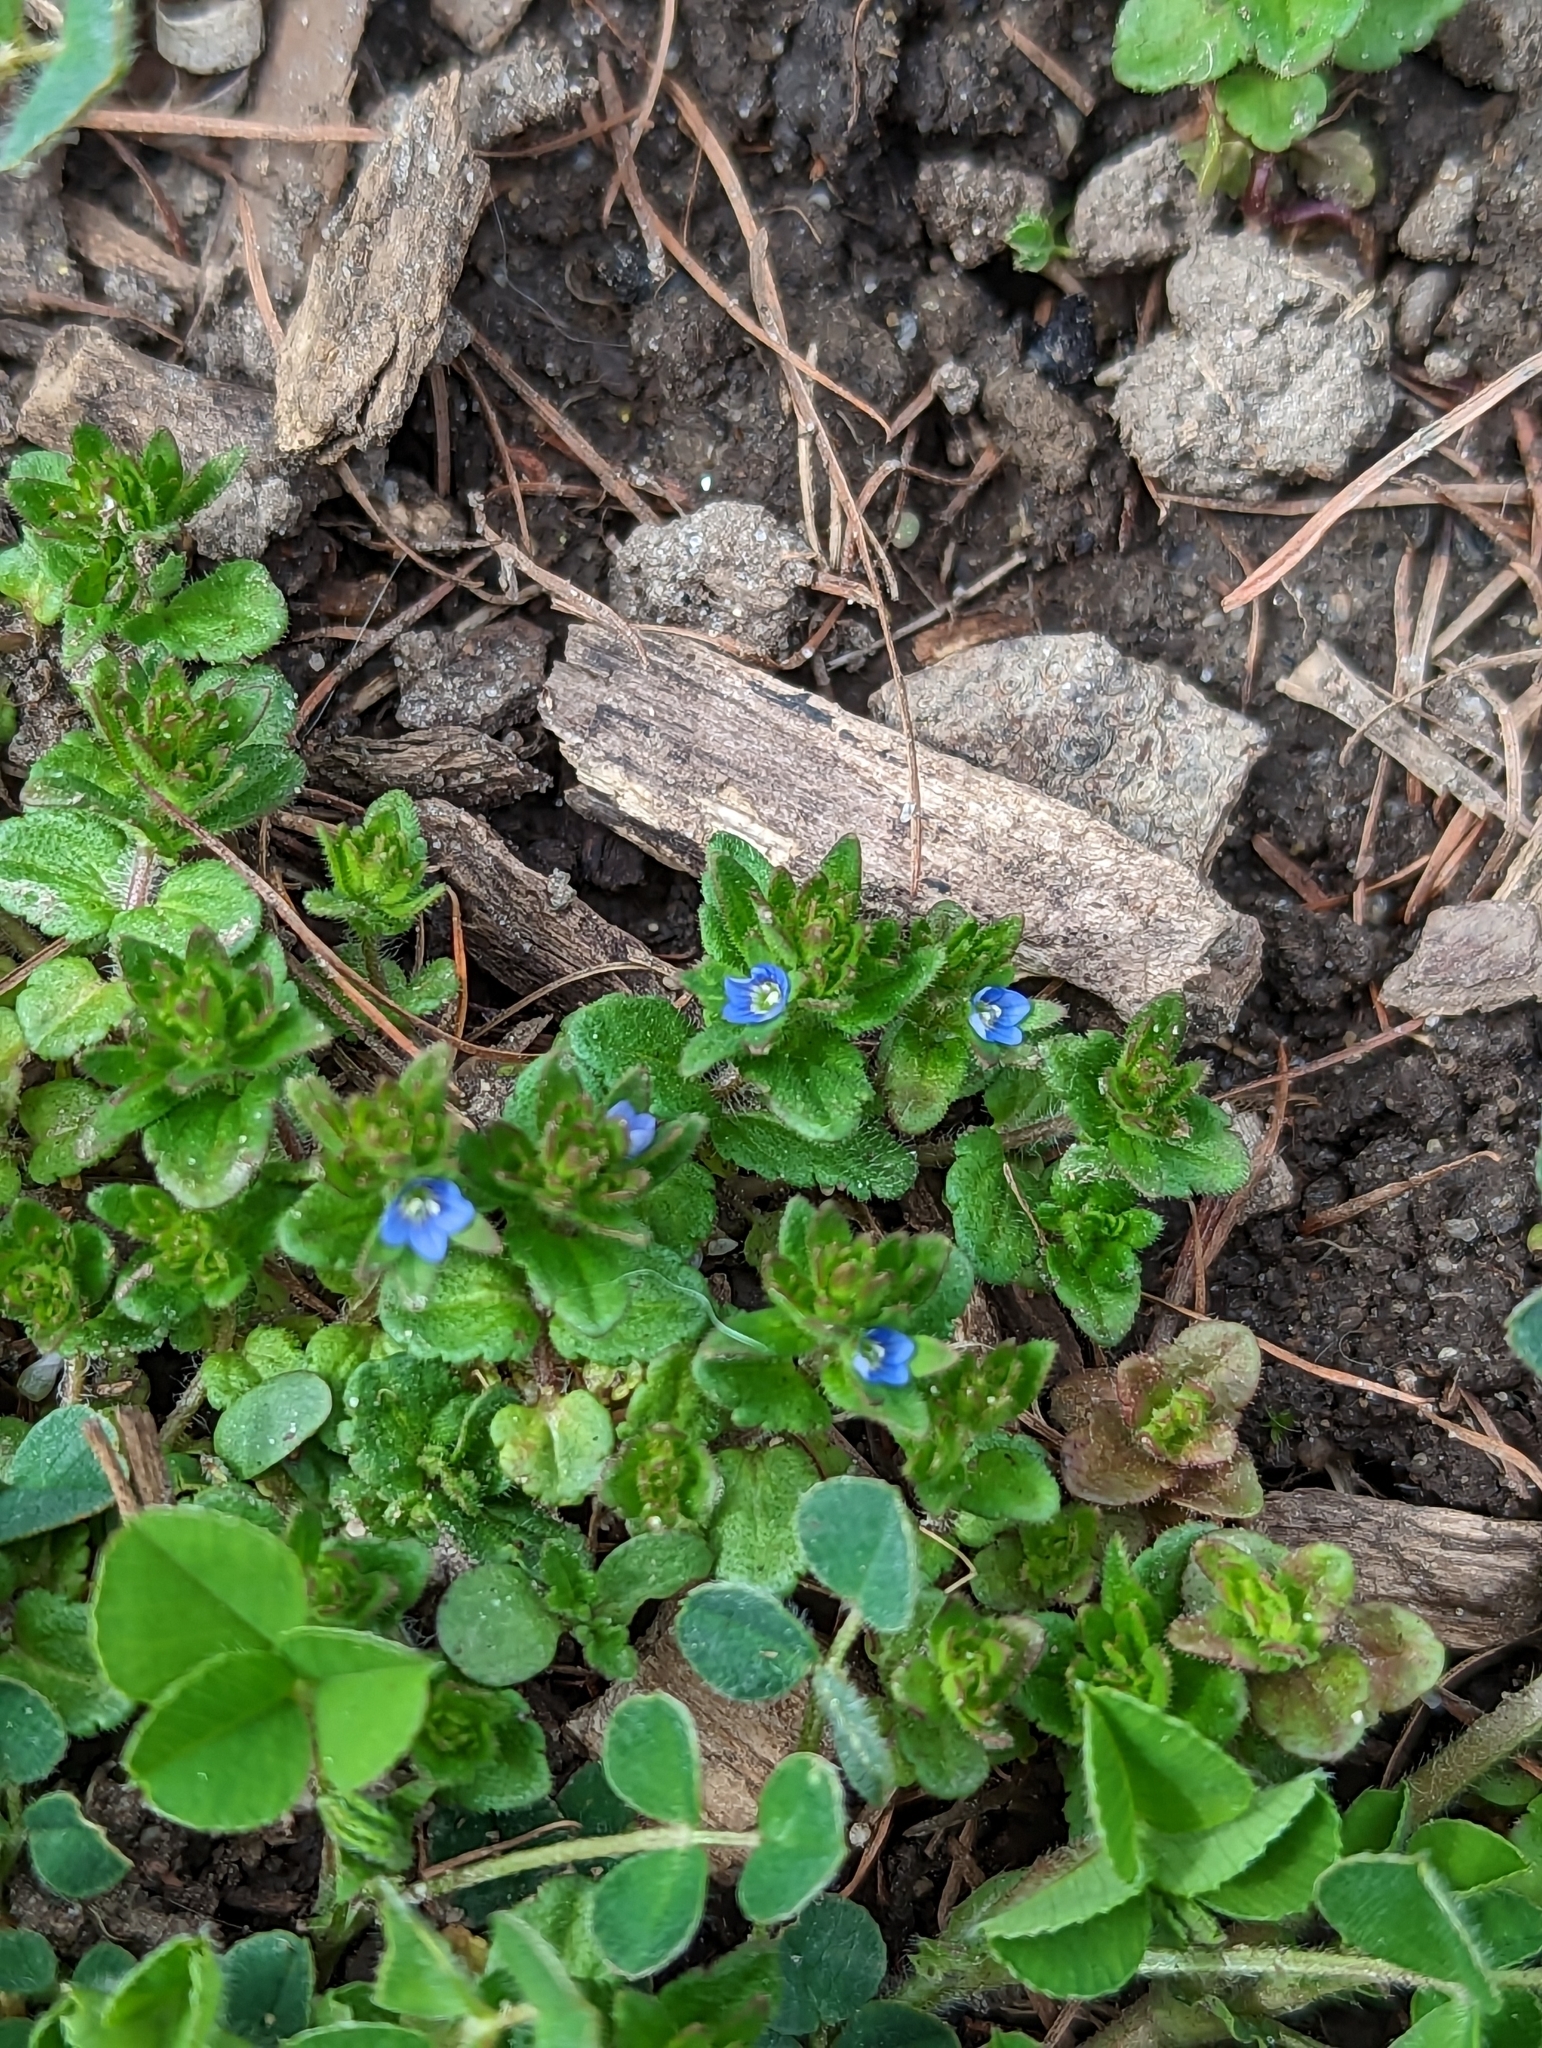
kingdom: Plantae
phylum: Tracheophyta
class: Magnoliopsida
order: Lamiales
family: Plantaginaceae
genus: Veronica
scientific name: Veronica arvensis
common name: Corn speedwell
